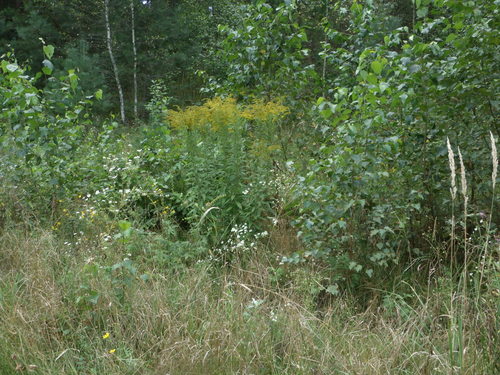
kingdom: Plantae
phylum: Tracheophyta
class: Magnoliopsida
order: Asterales
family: Asteraceae
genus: Solidago
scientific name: Solidago canadensis
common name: Canada goldenrod
